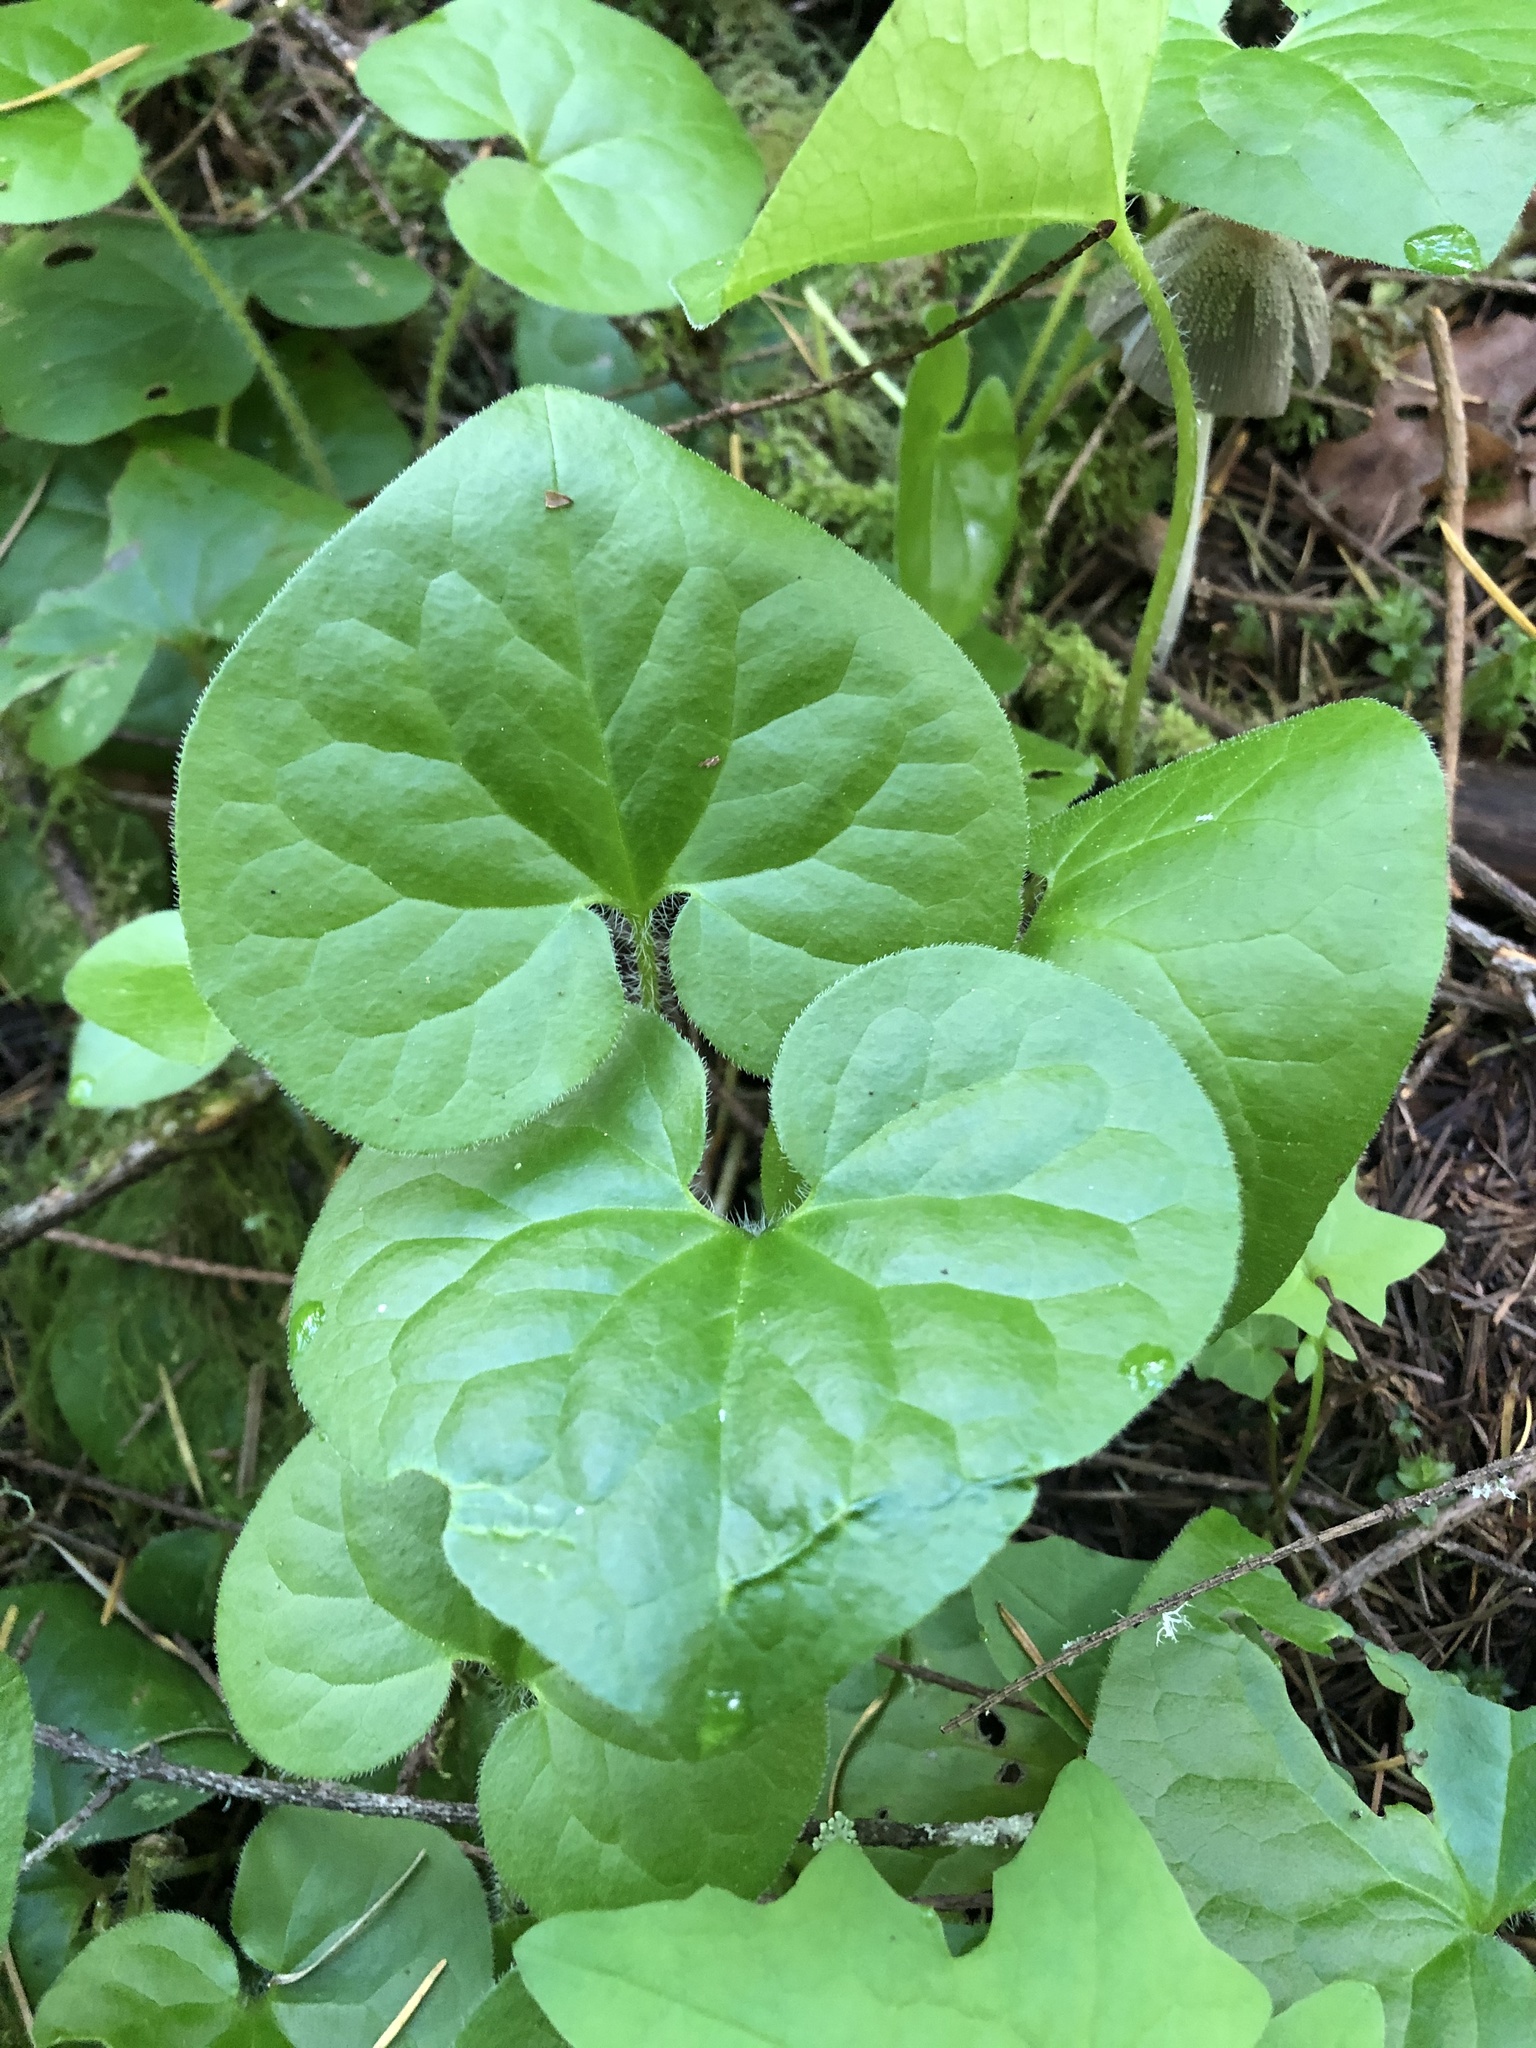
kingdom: Plantae
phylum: Tracheophyta
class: Magnoliopsida
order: Piperales
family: Aristolochiaceae
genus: Asarum
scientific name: Asarum caudatum
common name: Wild ginger
